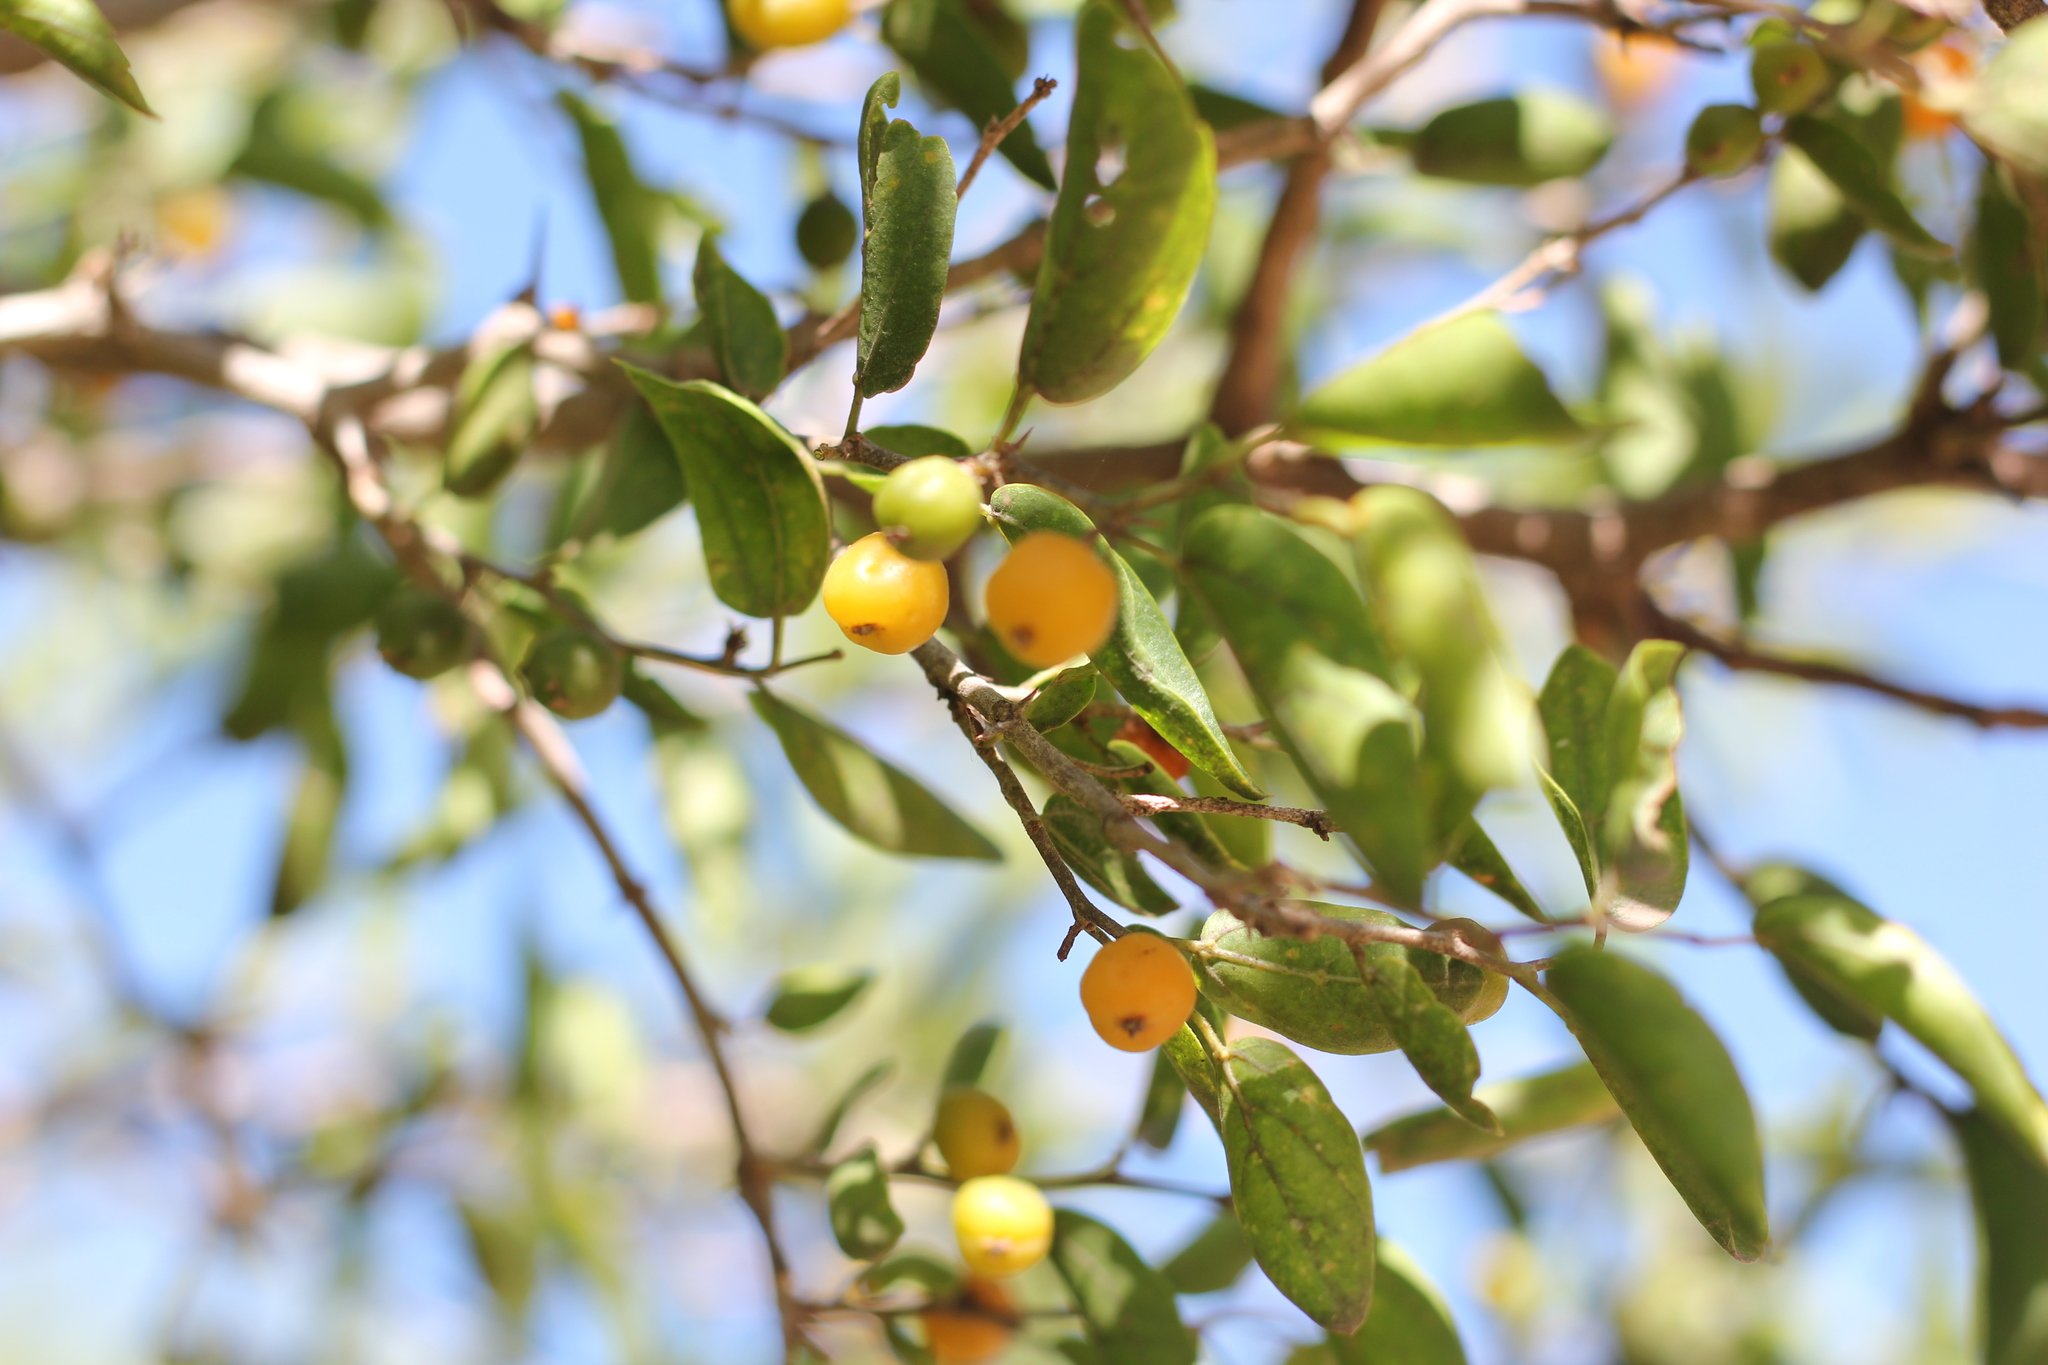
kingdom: Plantae
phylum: Tracheophyta
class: Magnoliopsida
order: Rosales
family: Cannabaceae
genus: Celtis
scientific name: Celtis tala
